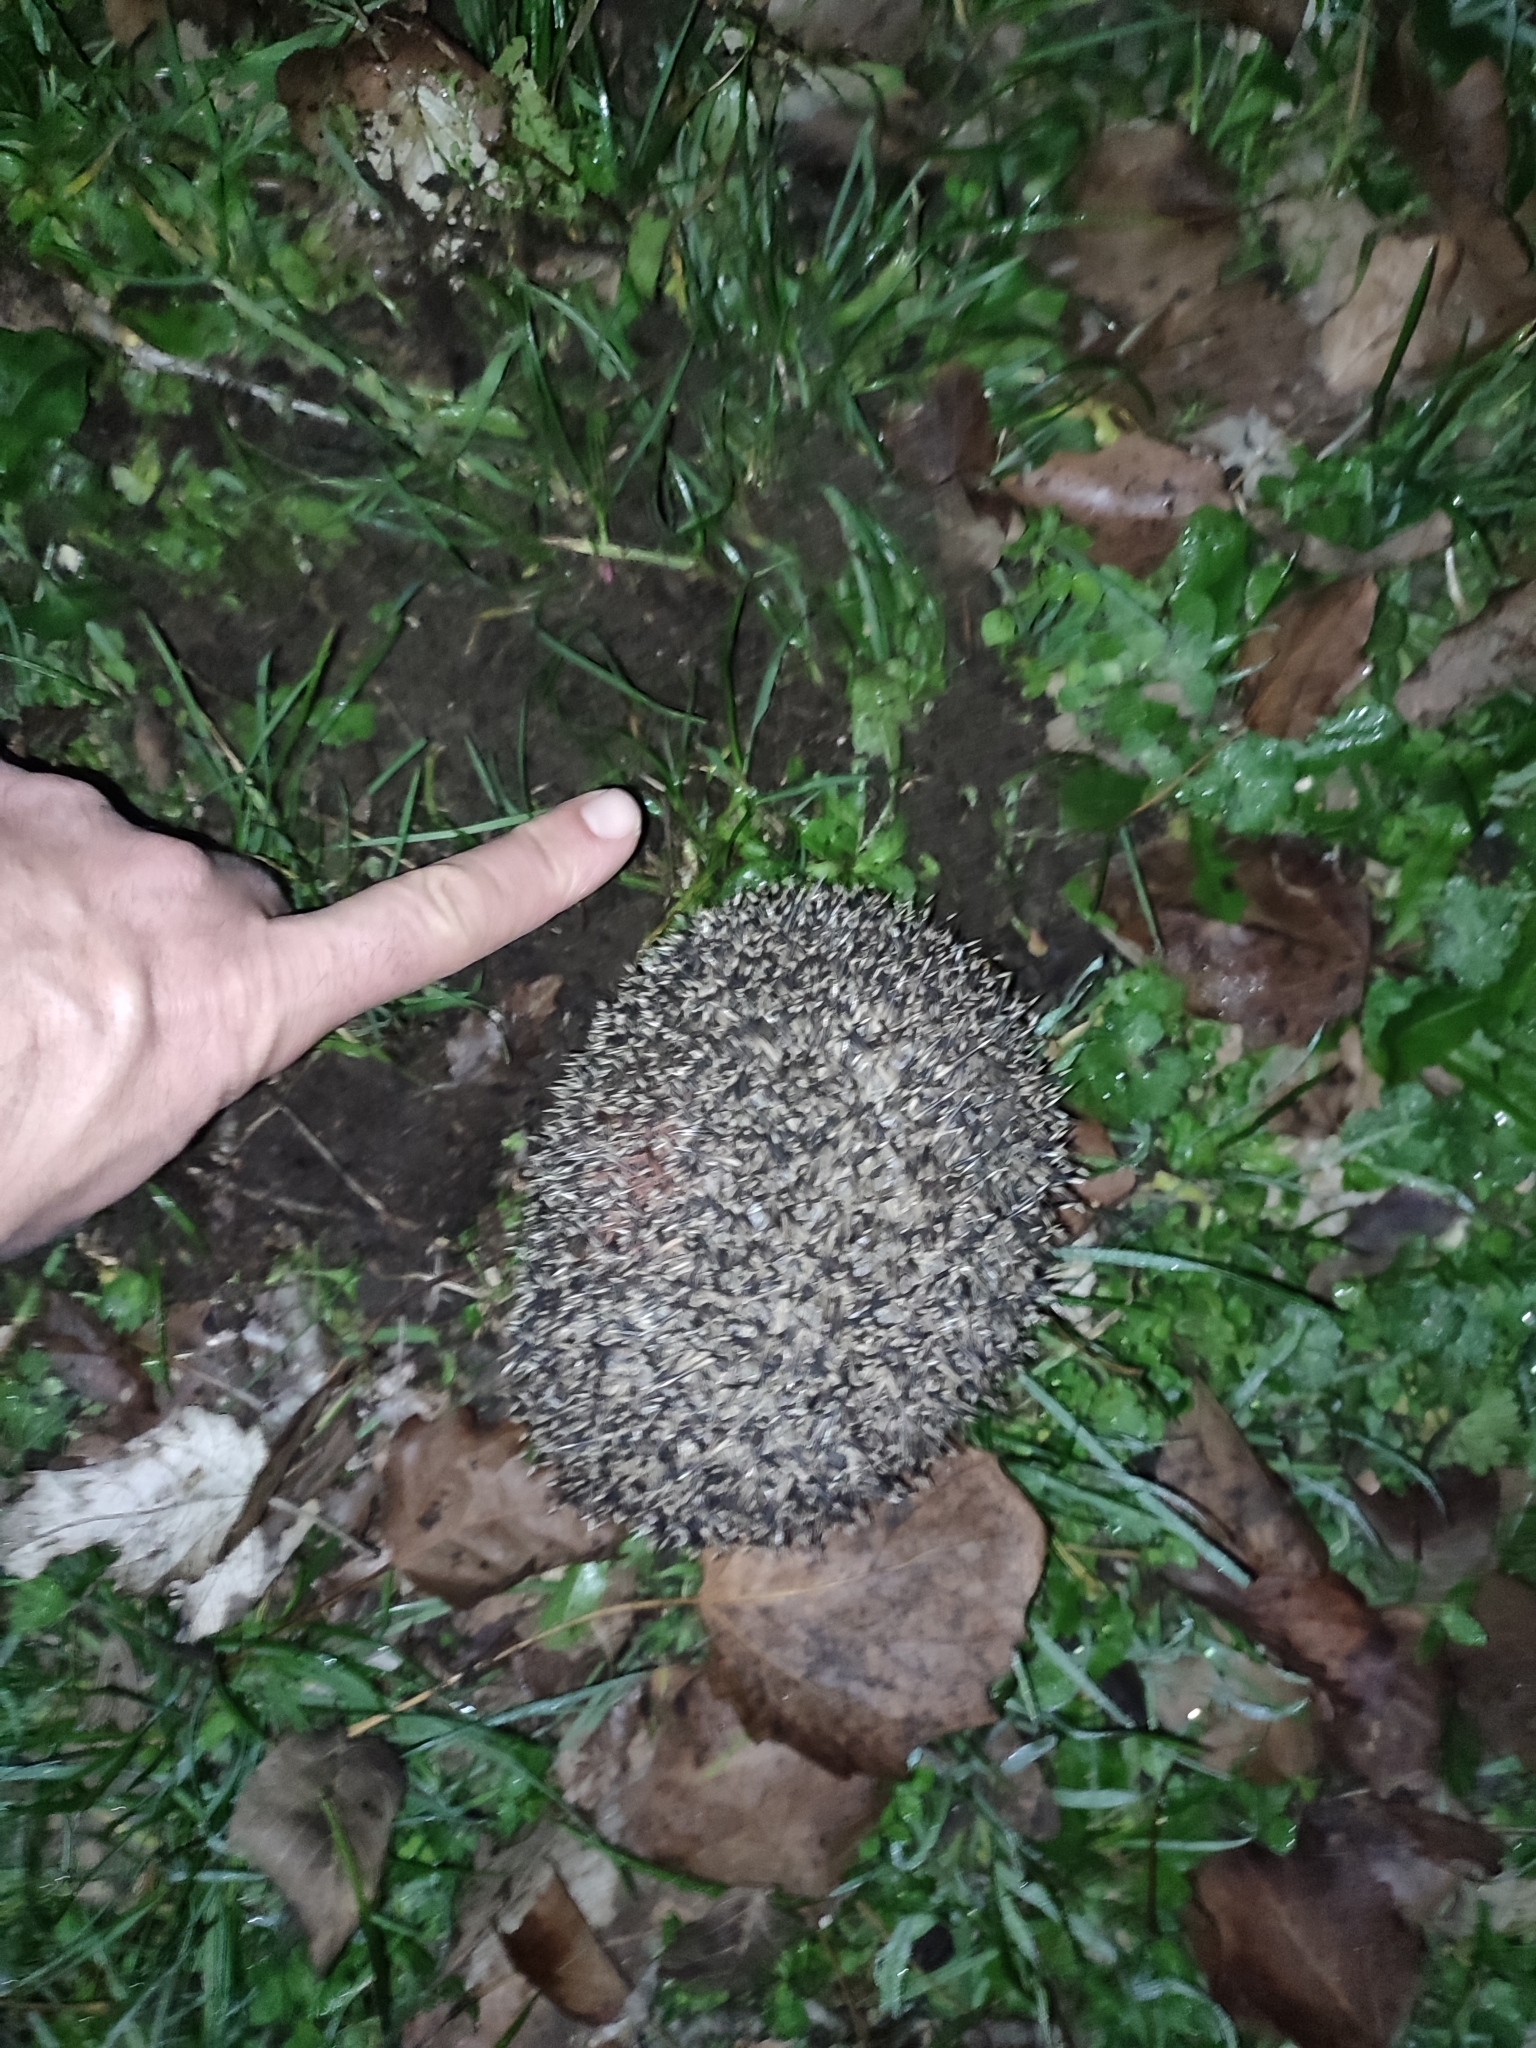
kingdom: Animalia
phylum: Chordata
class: Mammalia
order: Erinaceomorpha
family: Erinaceidae
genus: Erinaceus
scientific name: Erinaceus europaeus
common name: West european hedgehog
